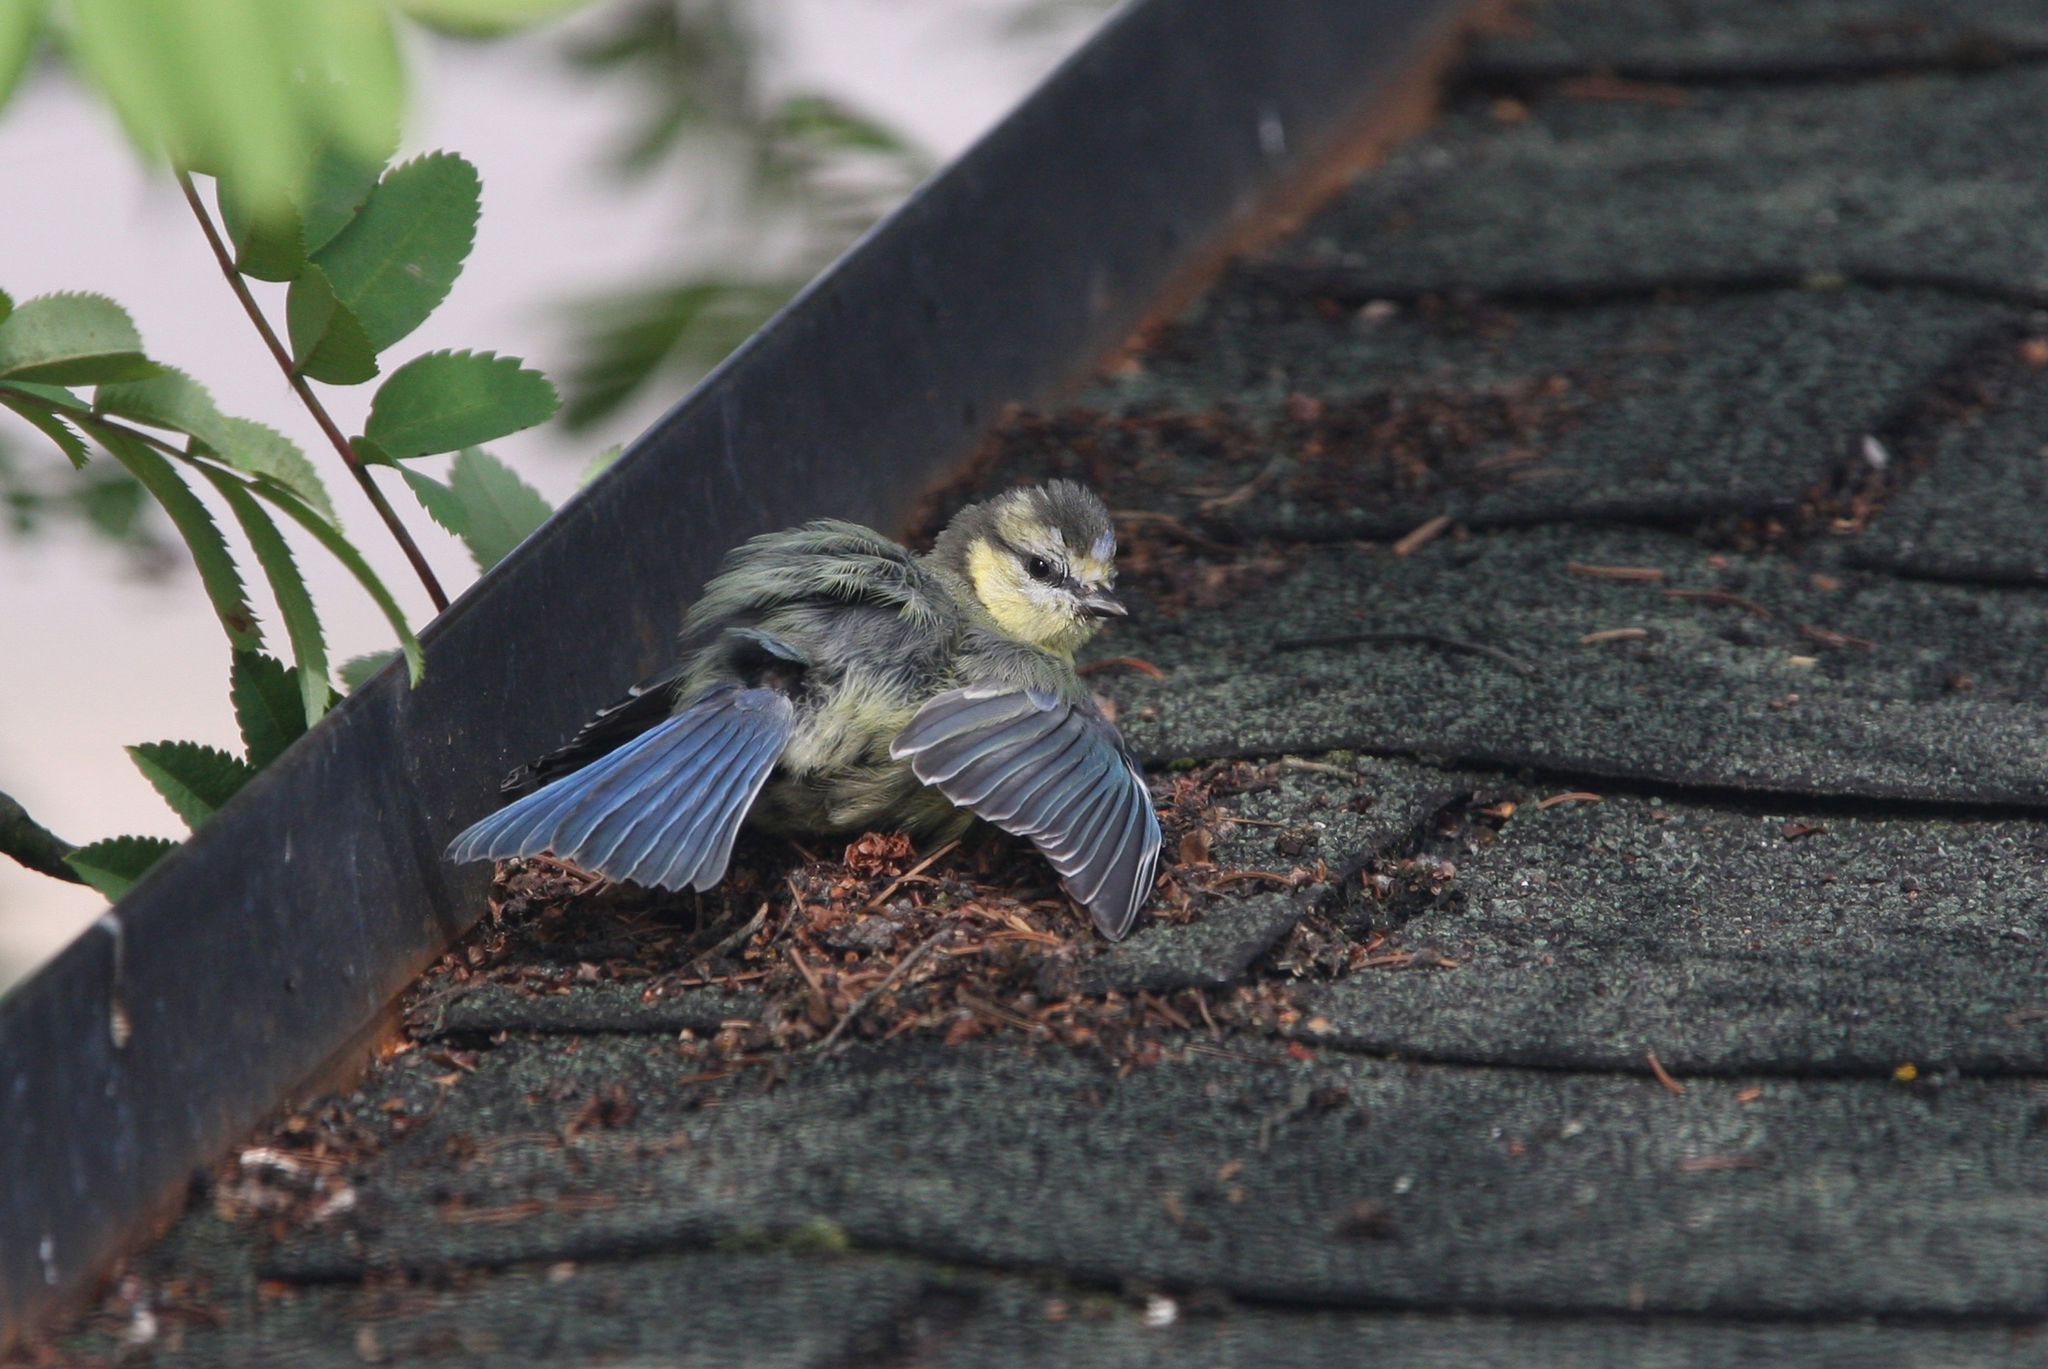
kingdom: Animalia
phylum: Chordata
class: Aves
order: Passeriformes
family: Paridae
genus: Cyanistes
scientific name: Cyanistes caeruleus
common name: Eurasian blue tit
